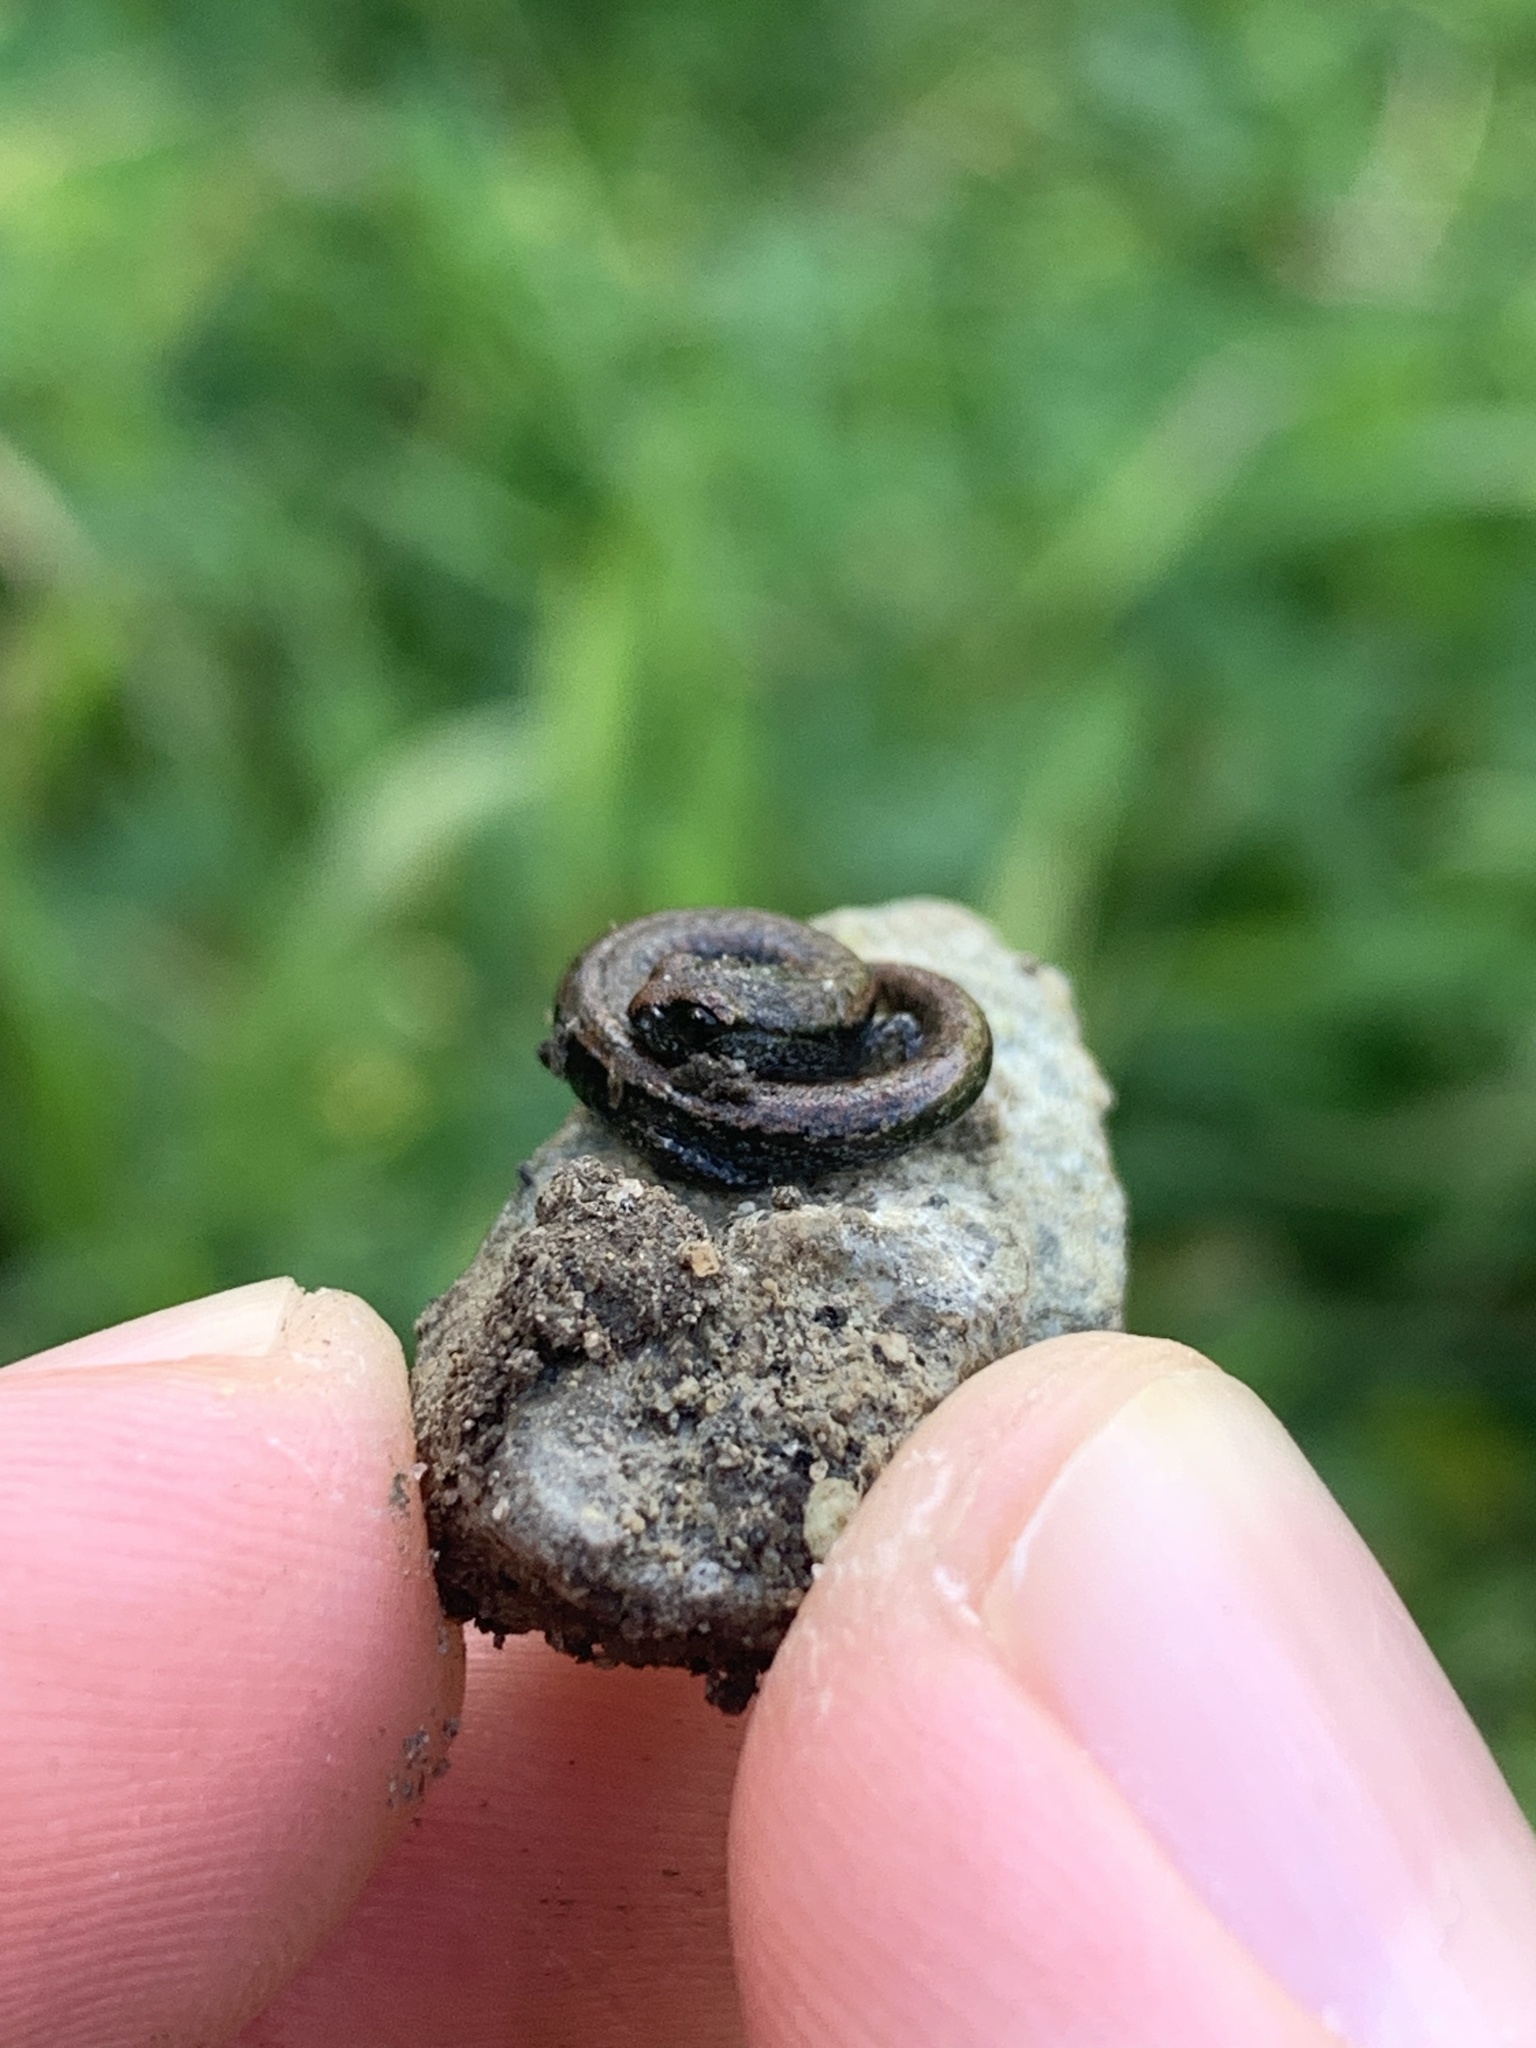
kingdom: Animalia
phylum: Chordata
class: Amphibia
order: Caudata
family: Plethodontidae
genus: Batrachoseps
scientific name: Batrachoseps attenuatus
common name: California slender salamander
